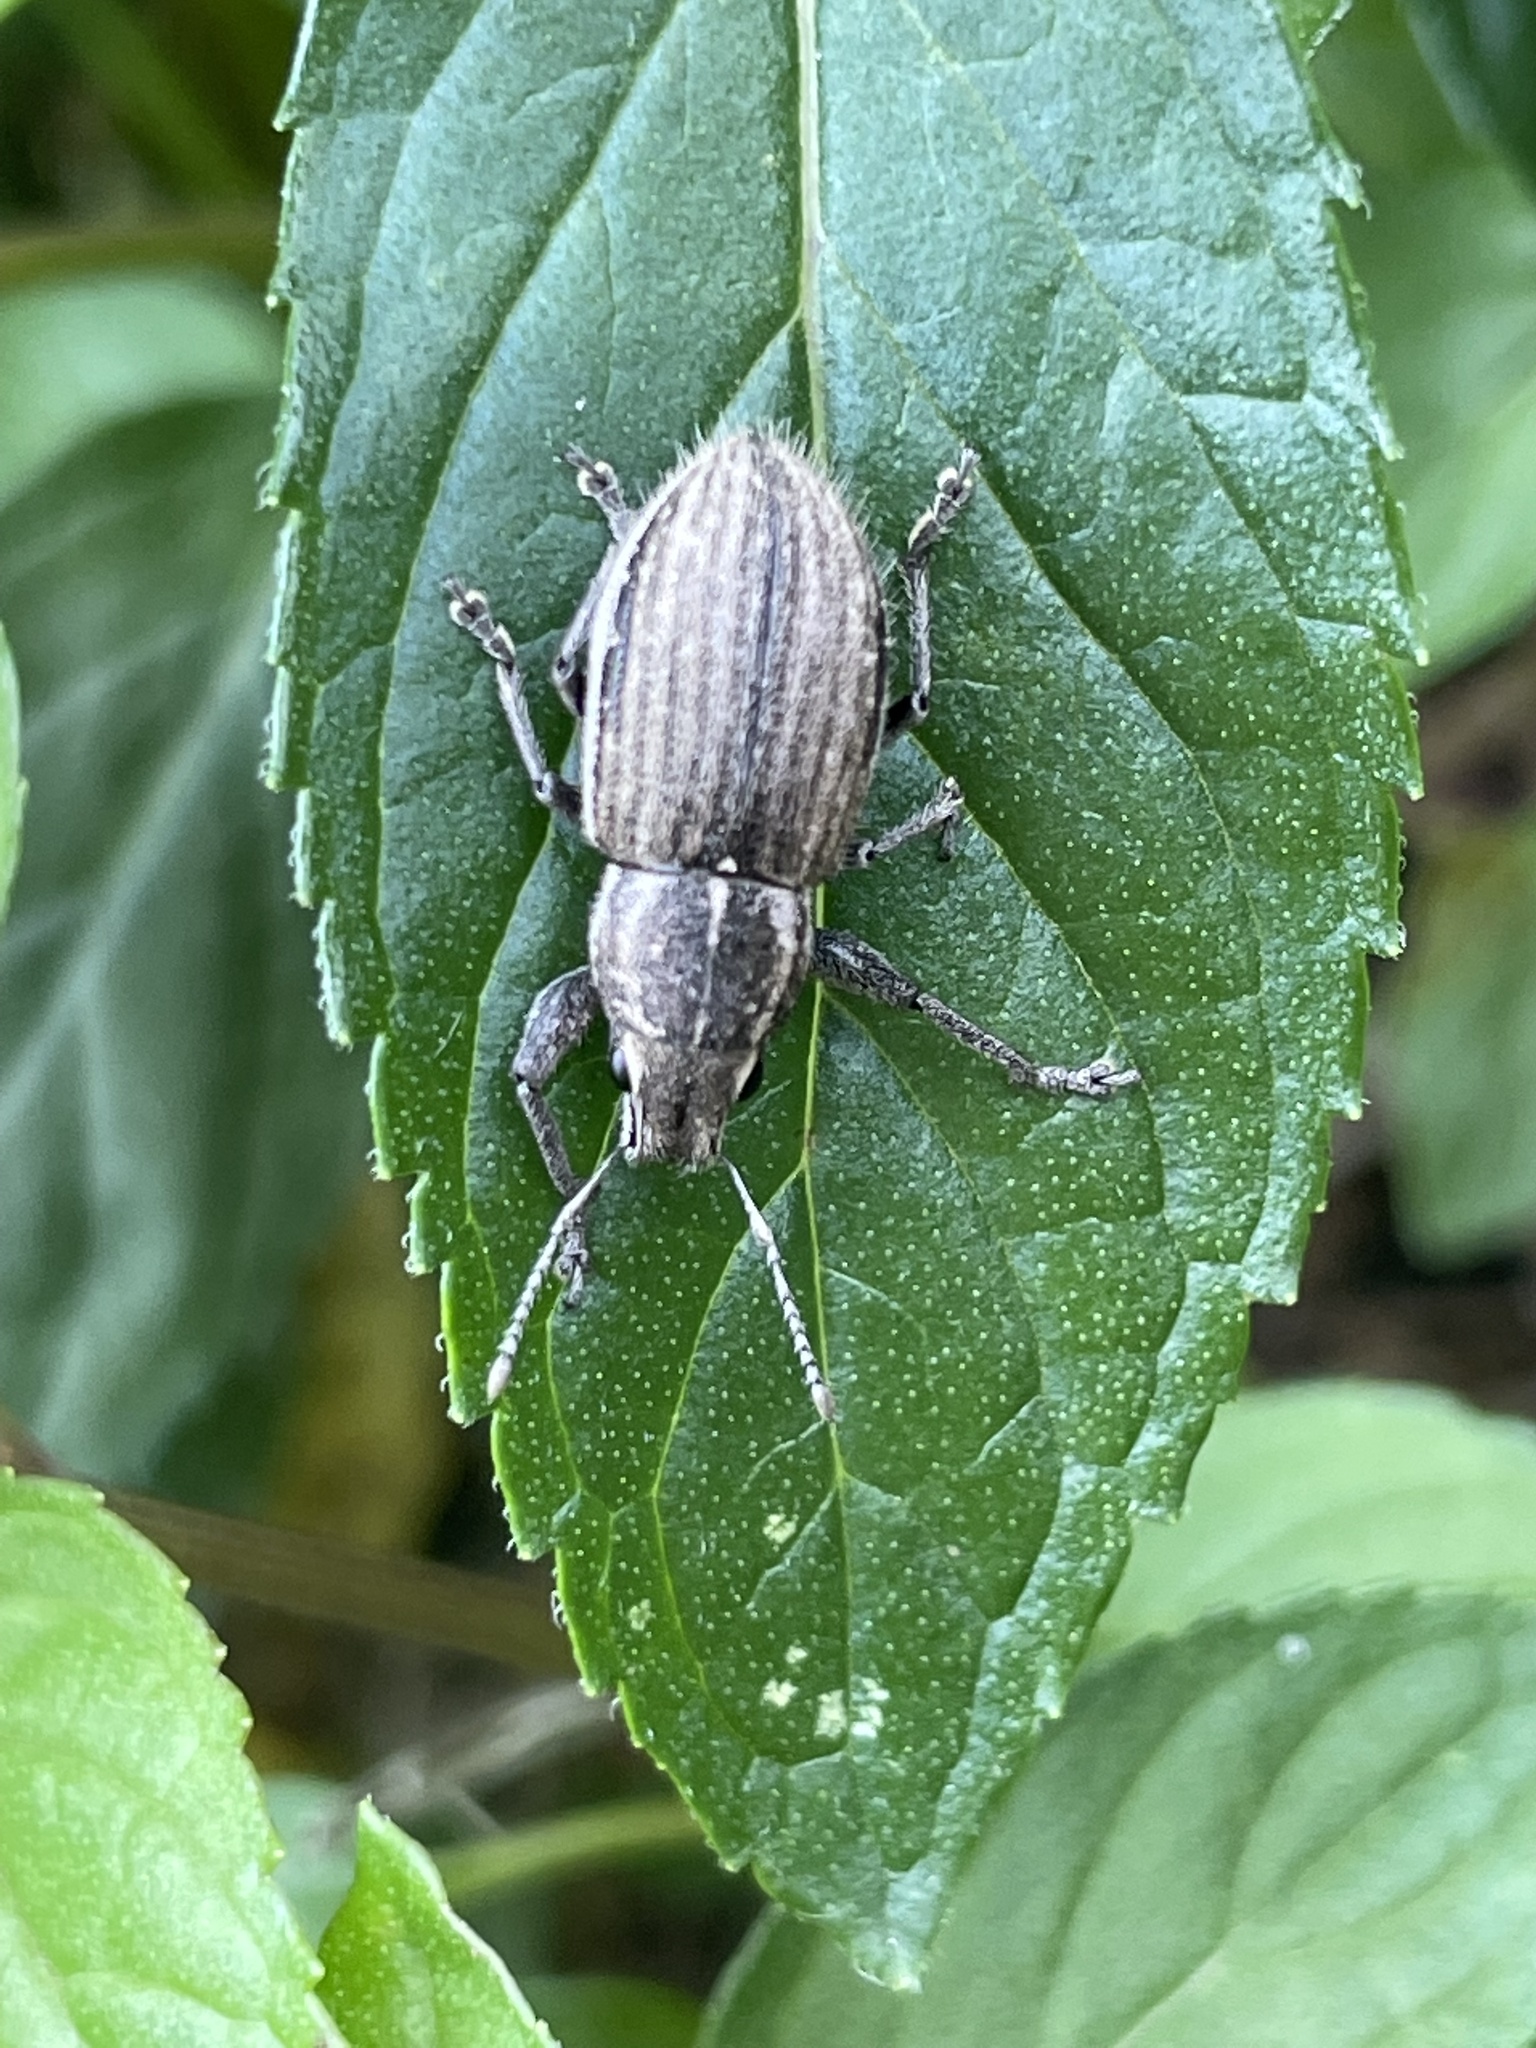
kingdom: Animalia
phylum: Arthropoda
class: Insecta
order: Coleoptera
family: Curculionidae
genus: Naupactus
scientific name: Naupactus leucoloma
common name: Whitefringed beetle
